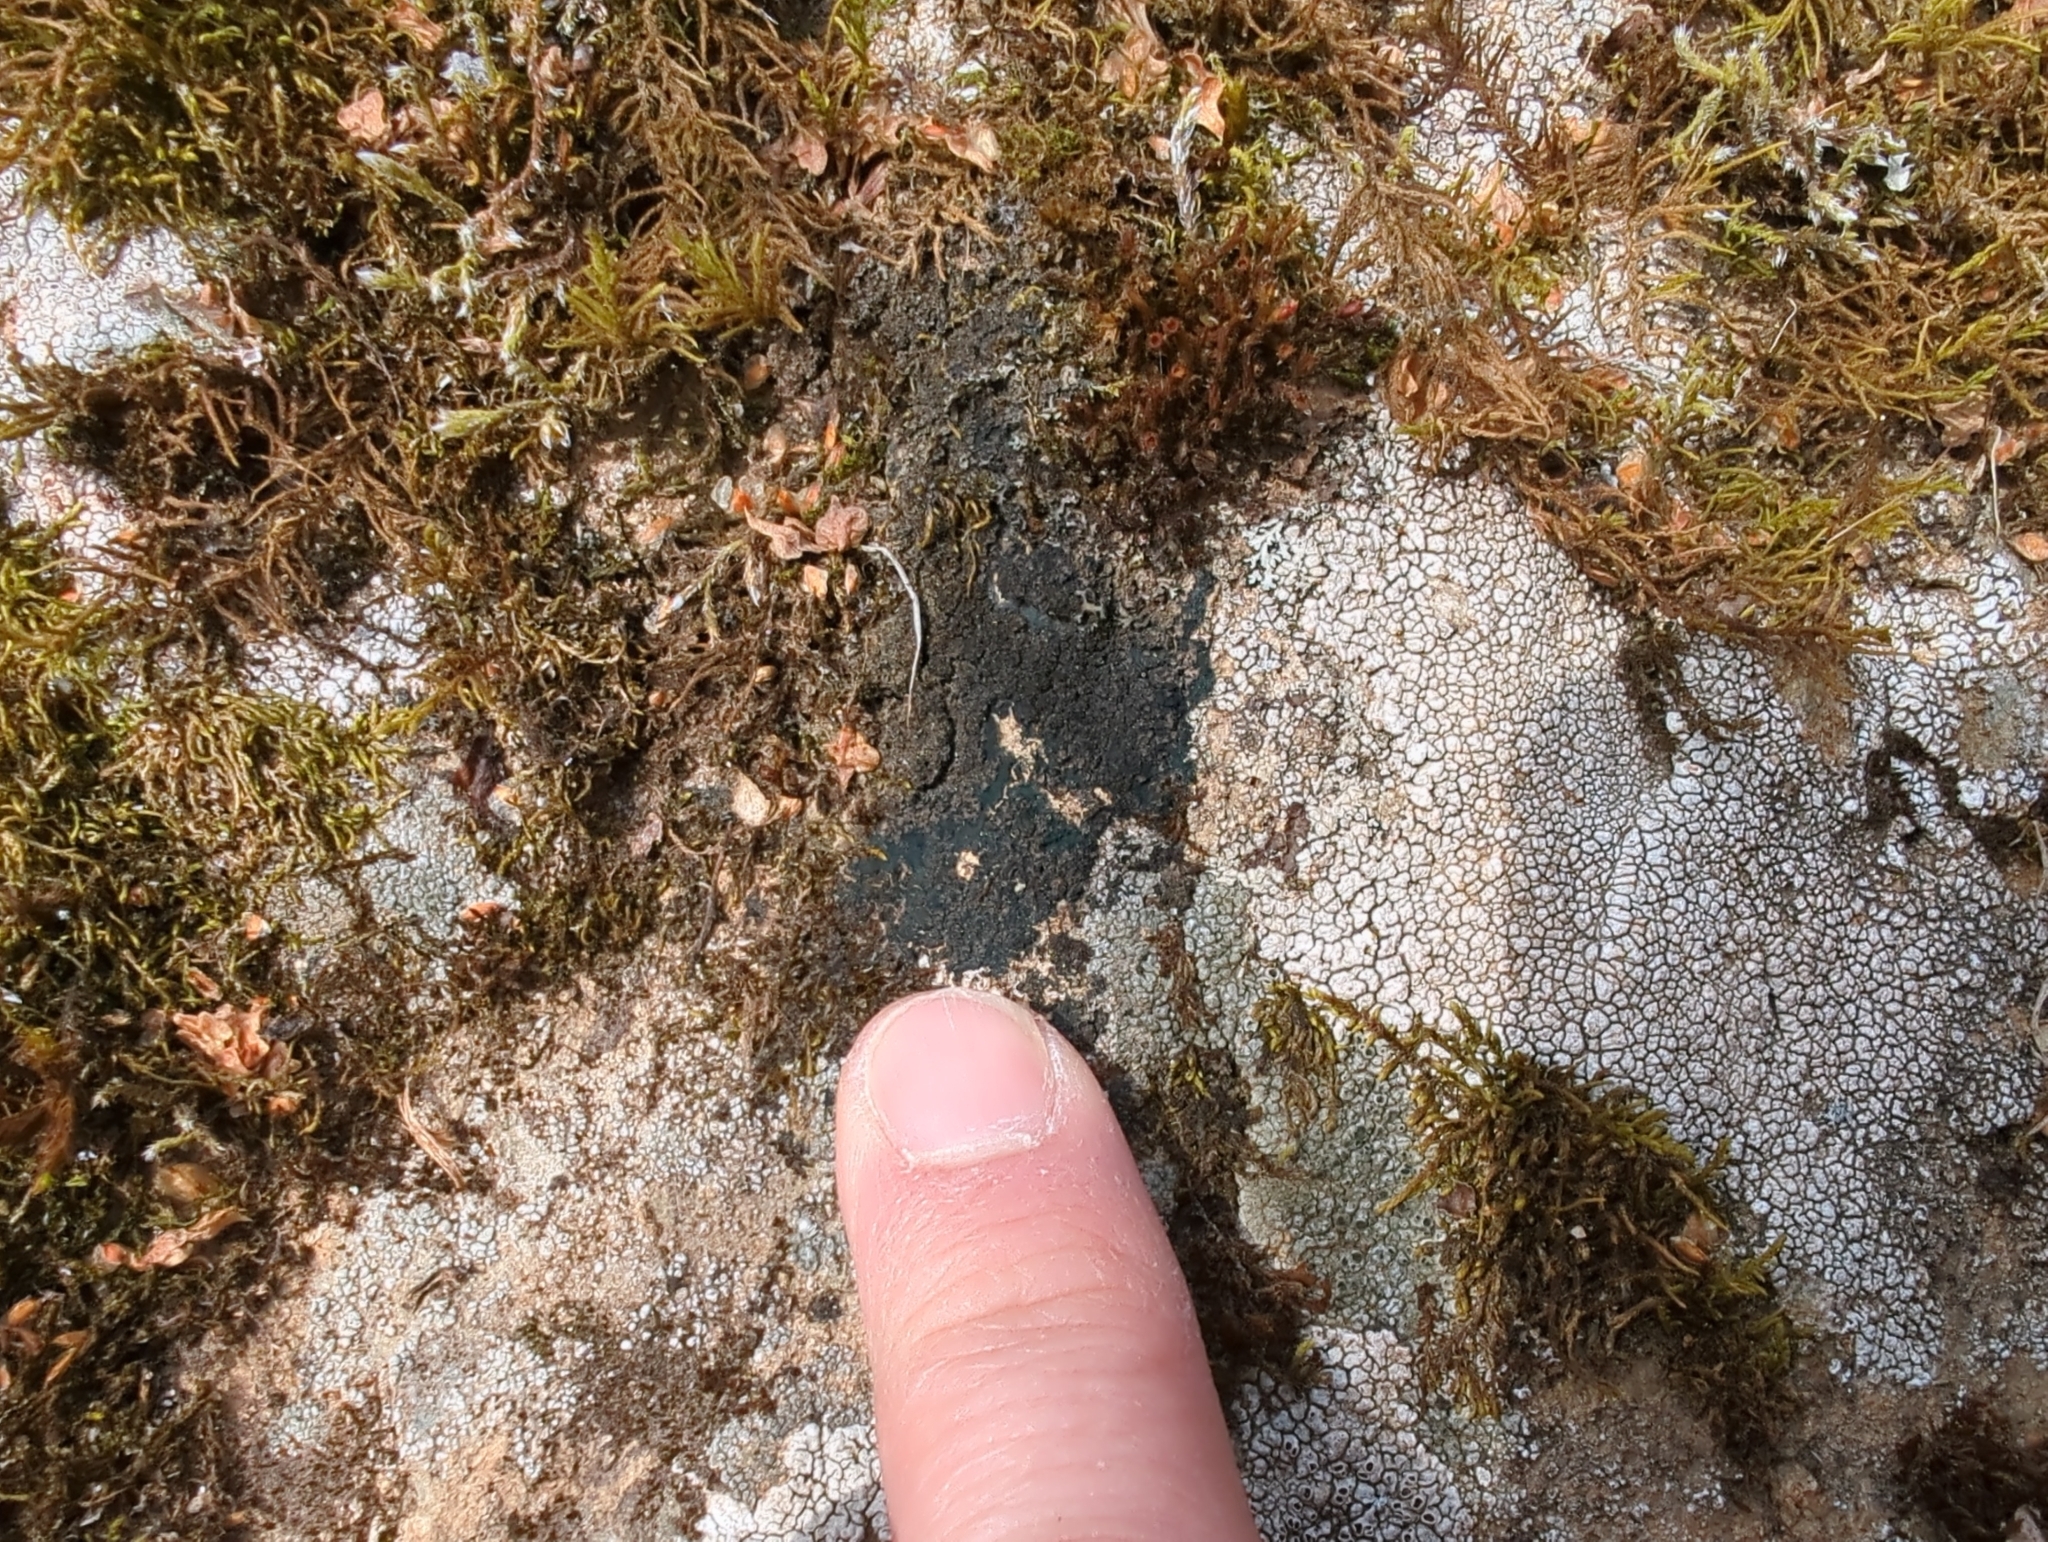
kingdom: Fungi
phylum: Ascomycota
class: Lecanoromycetes
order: Peltigerales
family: Pannariaceae
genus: Parmeliella
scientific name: Parmeliella thriptophylla
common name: Black-bordered shingle lichen
